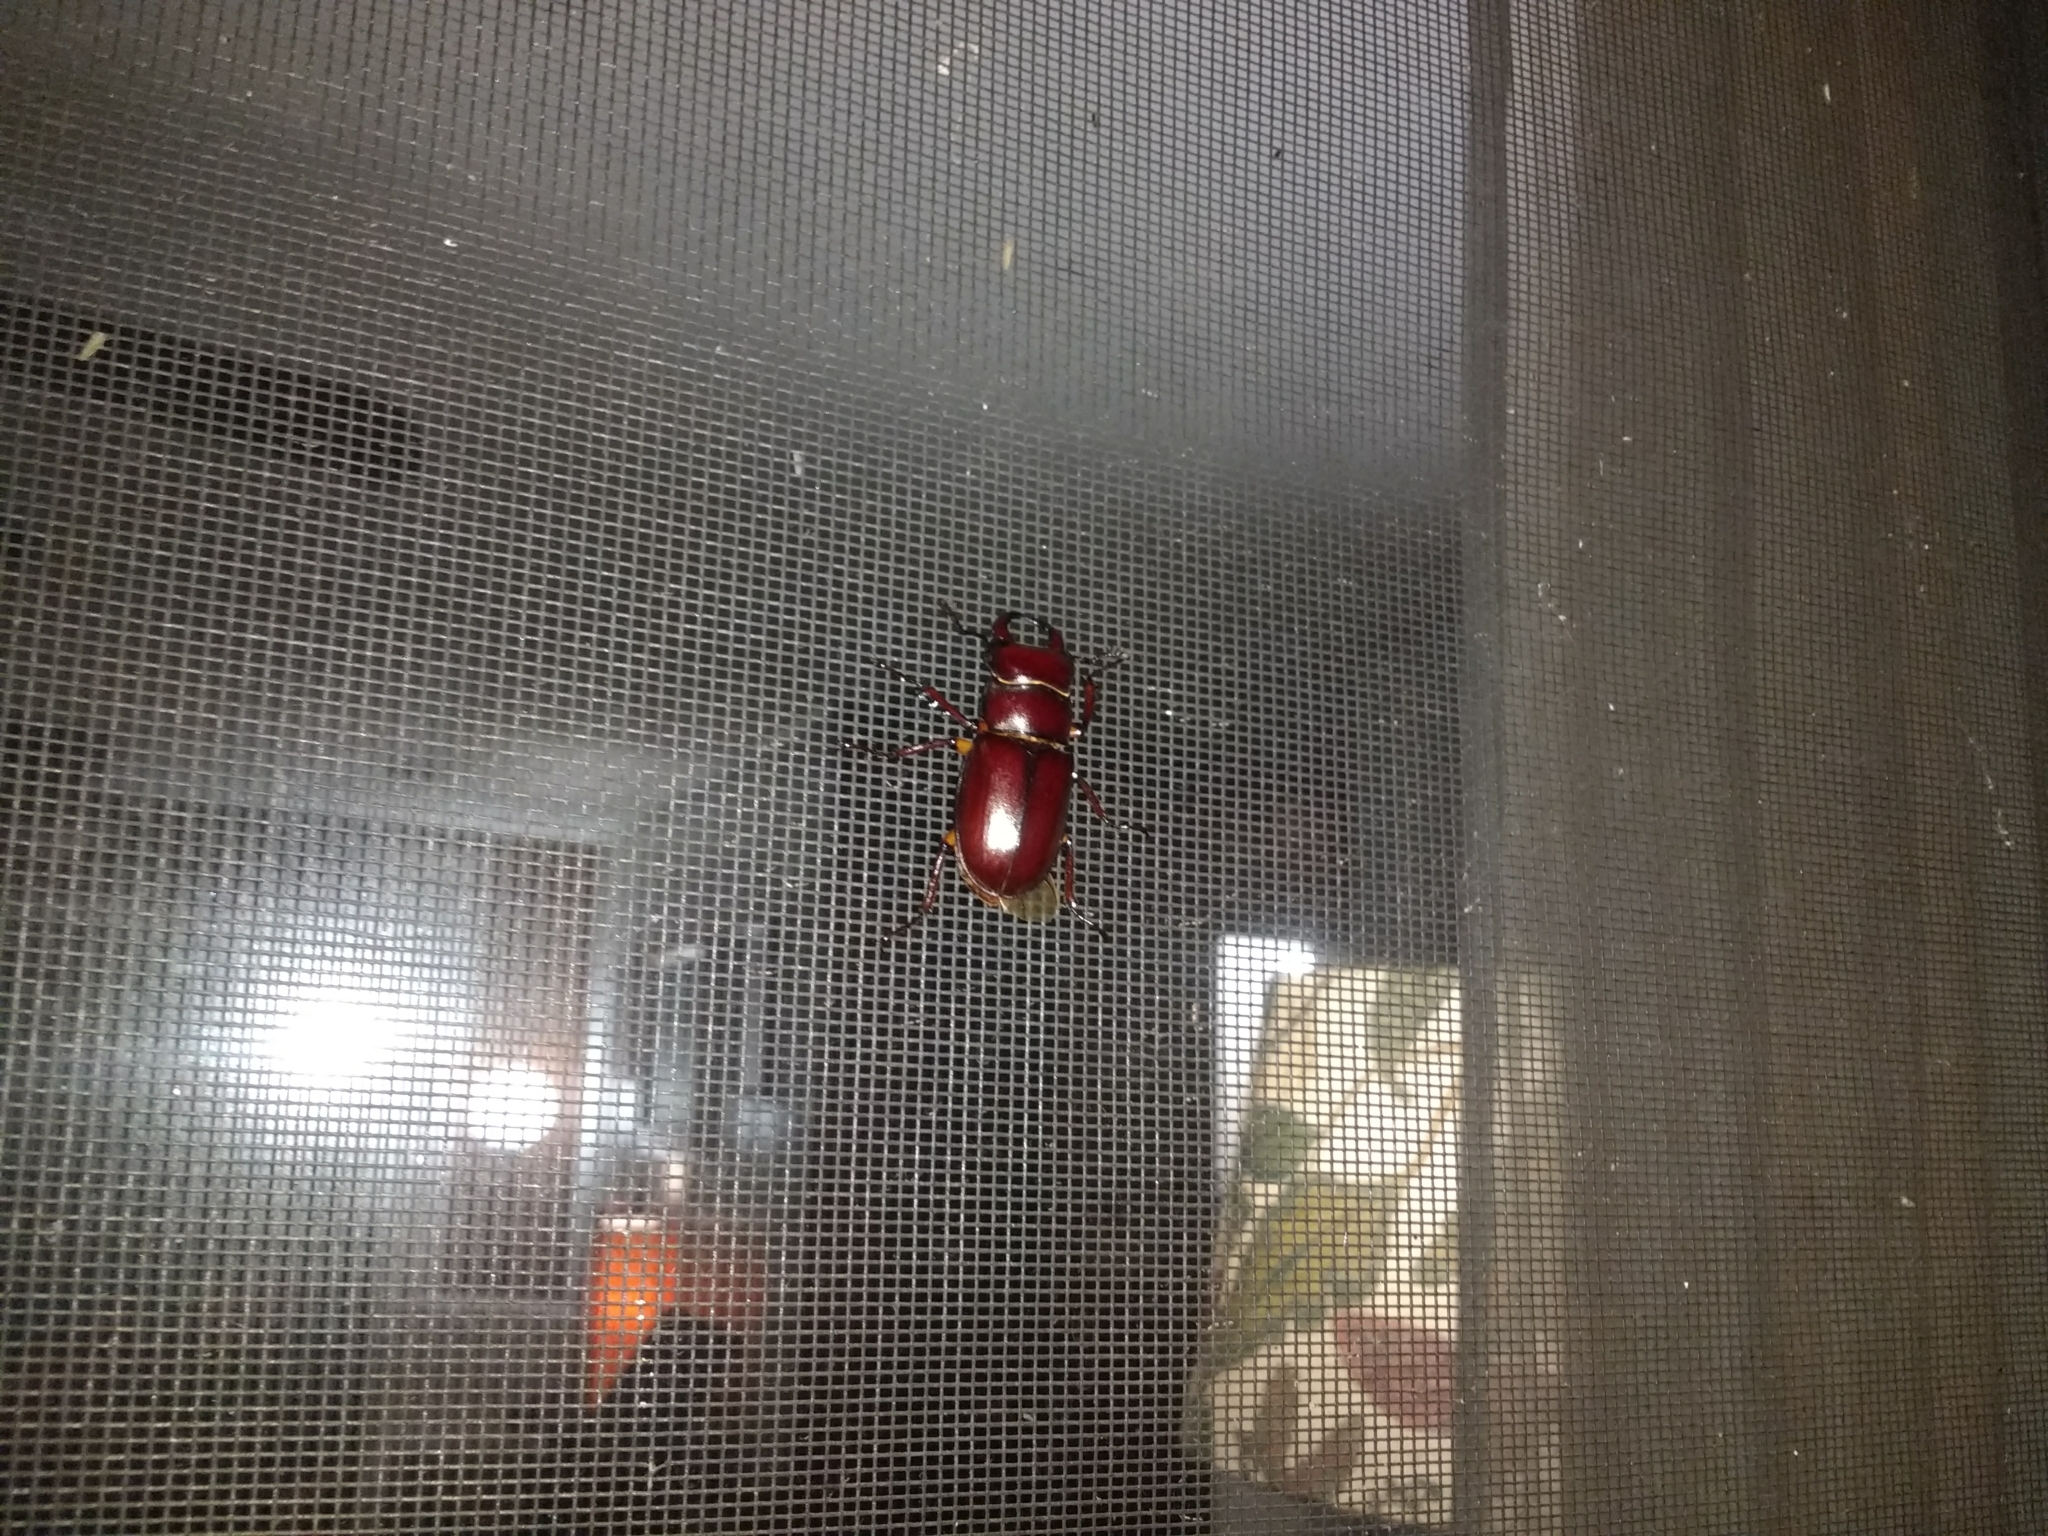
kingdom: Animalia
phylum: Arthropoda
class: Insecta
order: Coleoptera
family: Lucanidae
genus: Lucanus
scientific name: Lucanus capreolus
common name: Stag beetle
